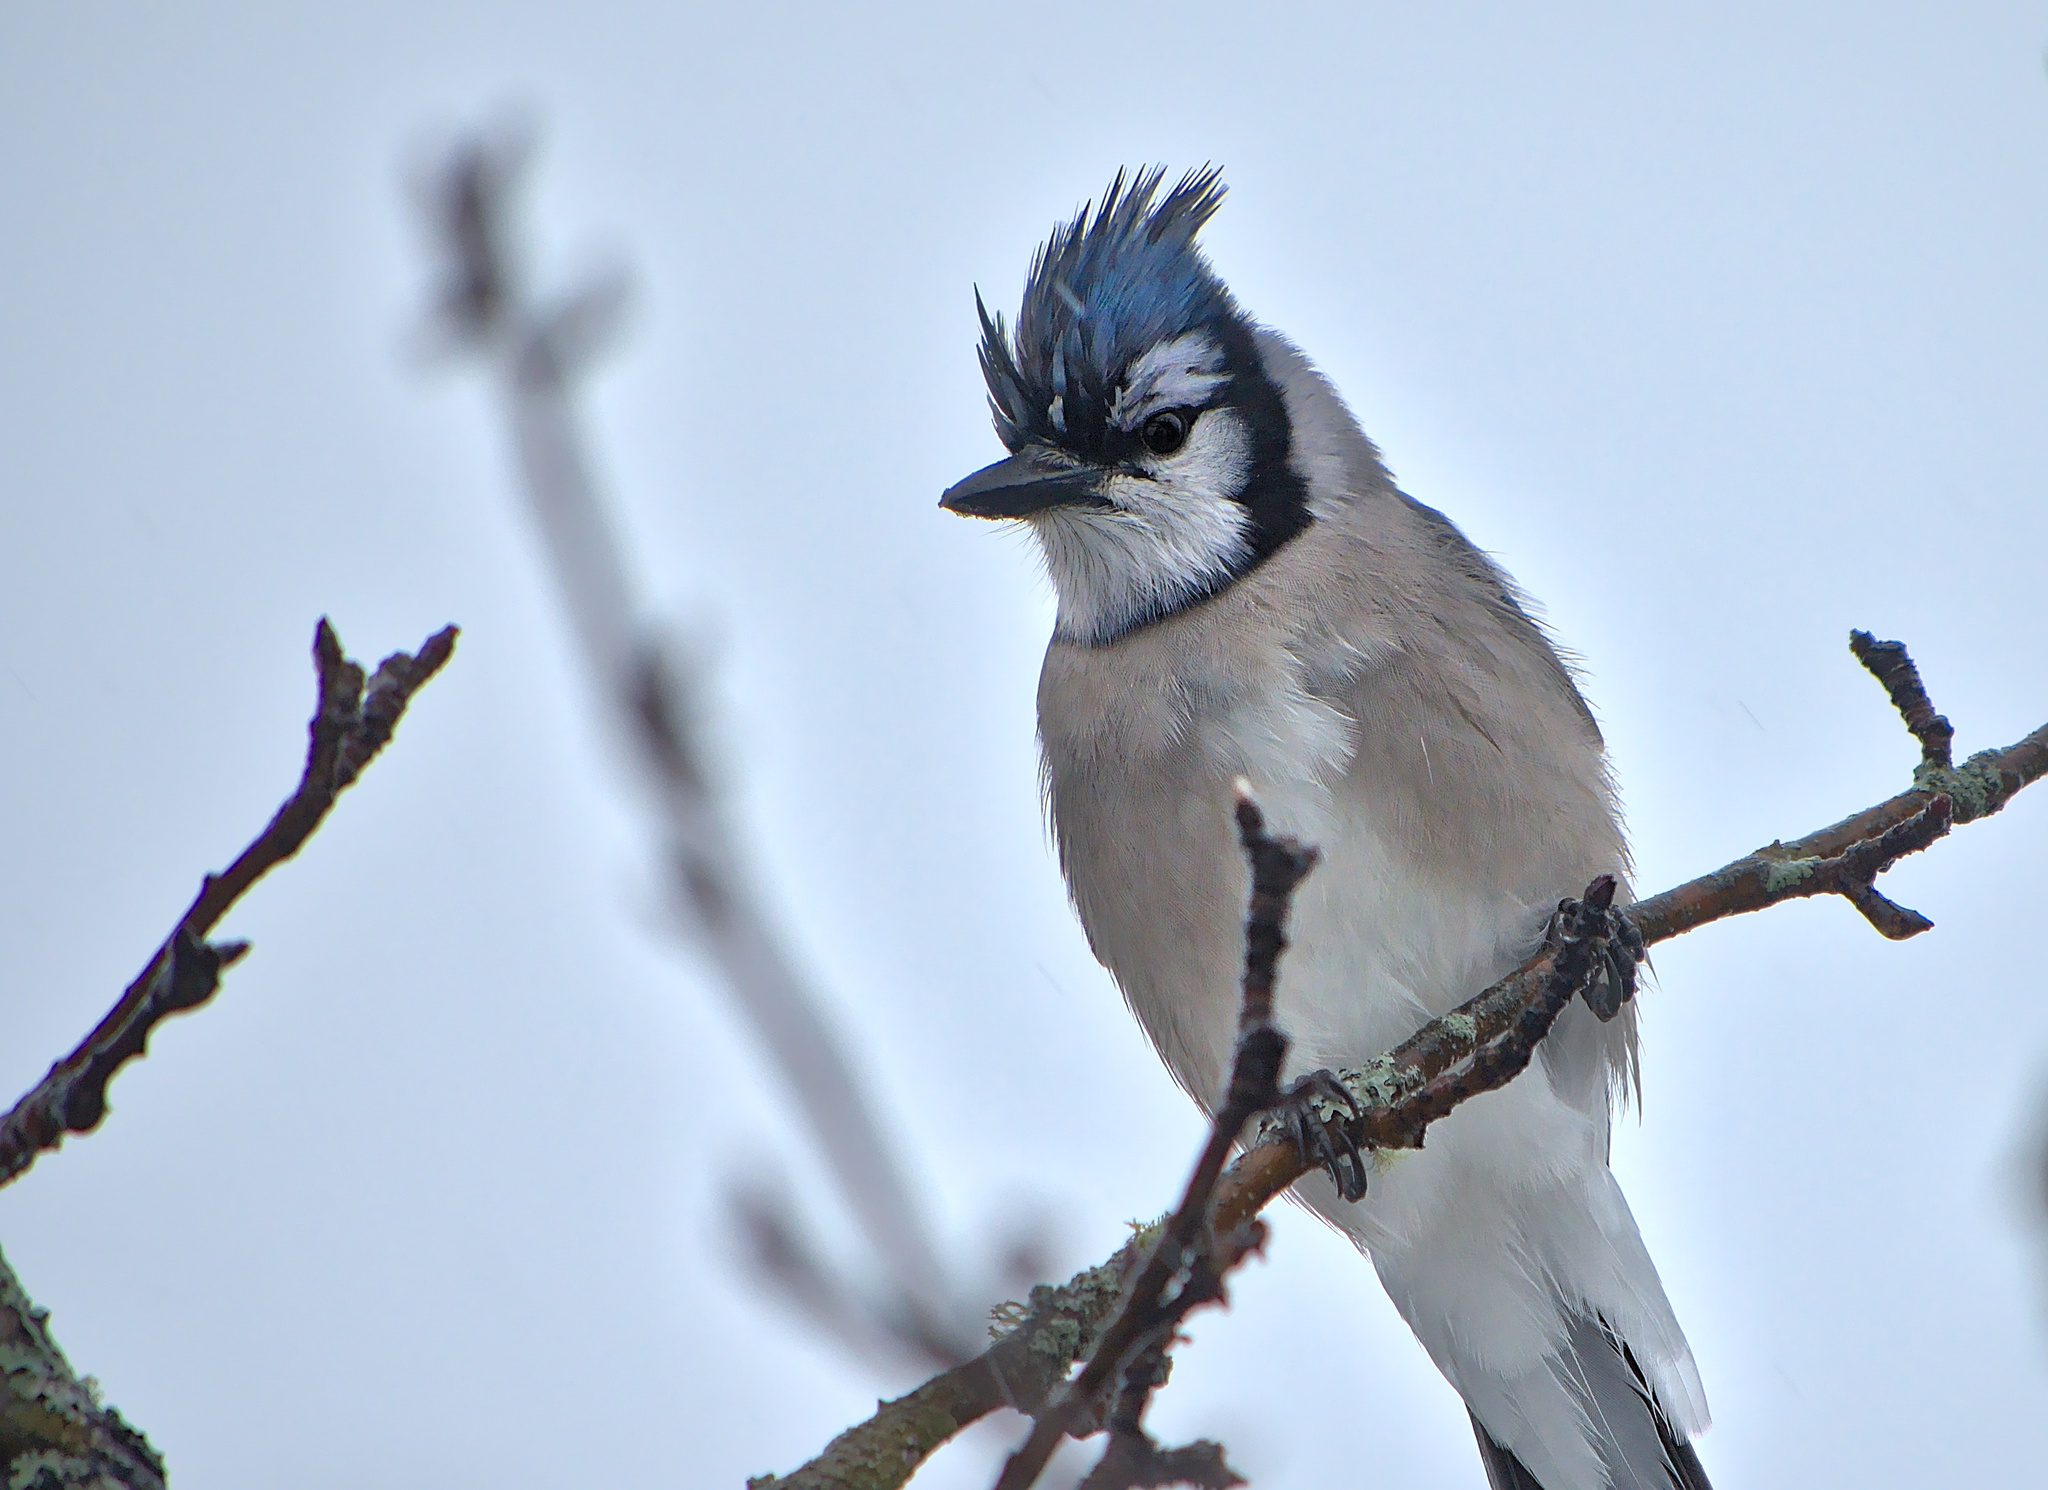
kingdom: Animalia
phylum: Chordata
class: Aves
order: Passeriformes
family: Corvidae
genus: Cyanocitta
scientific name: Cyanocitta cristata
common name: Blue jay
